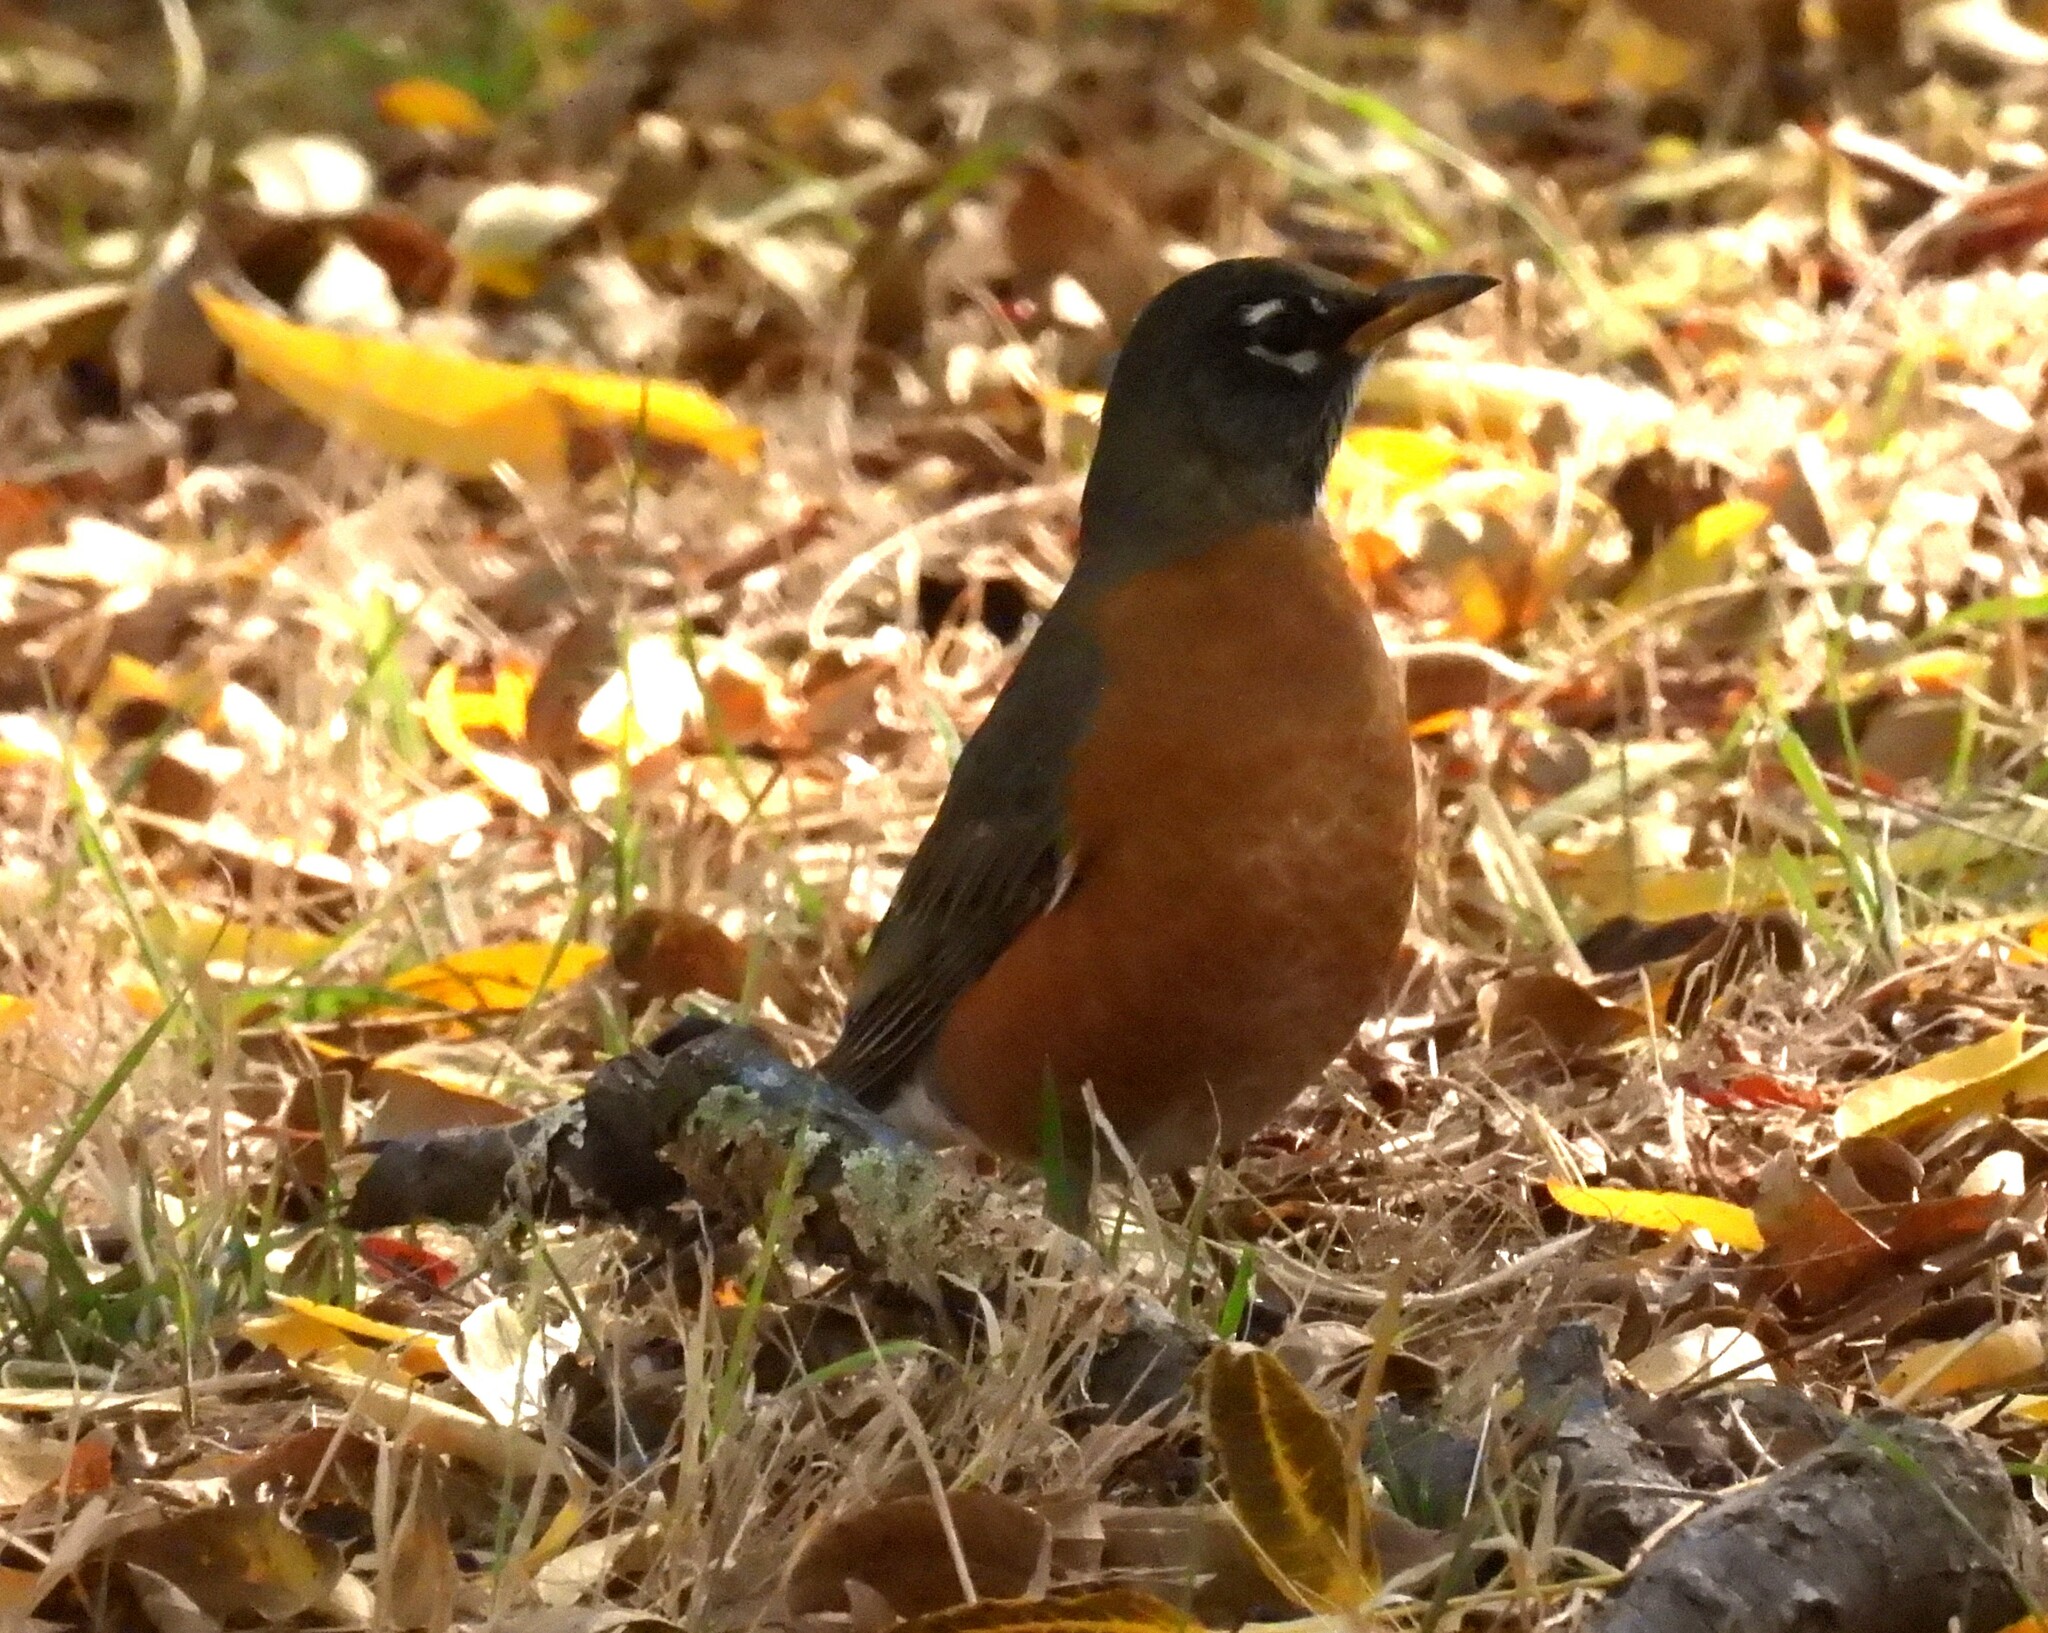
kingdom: Animalia
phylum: Chordata
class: Aves
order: Passeriformes
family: Turdidae
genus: Turdus
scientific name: Turdus migratorius
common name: American robin
